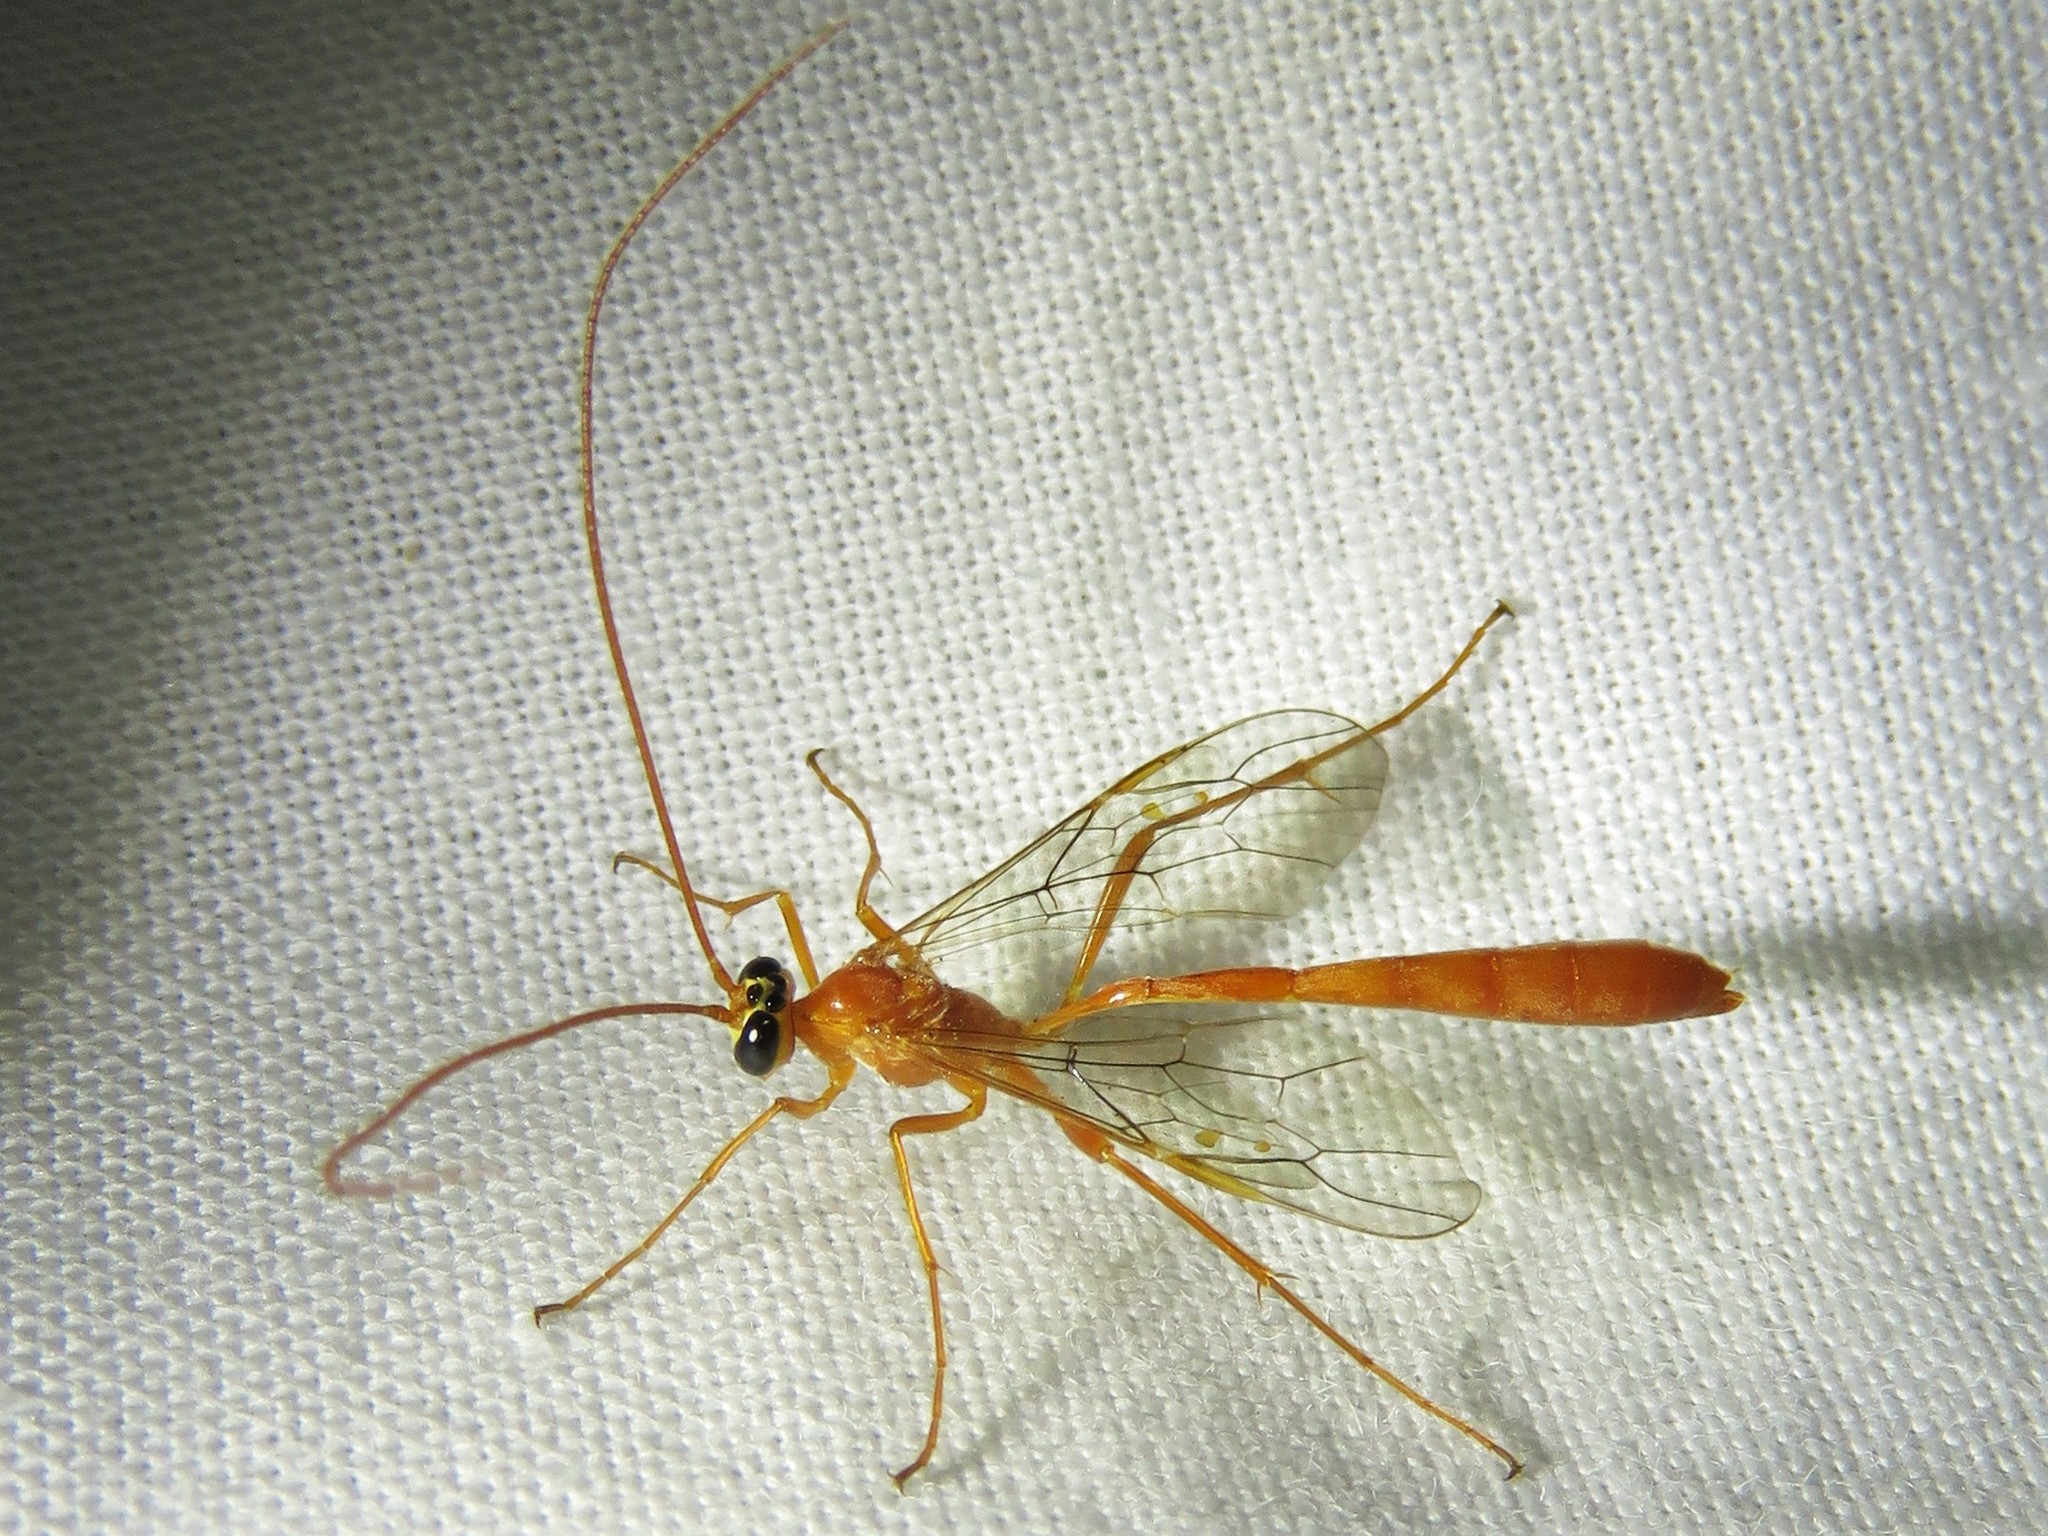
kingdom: Animalia
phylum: Arthropoda
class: Insecta
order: Hymenoptera
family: Ichneumonidae
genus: Enicospilus
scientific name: Enicospilus purgatus
